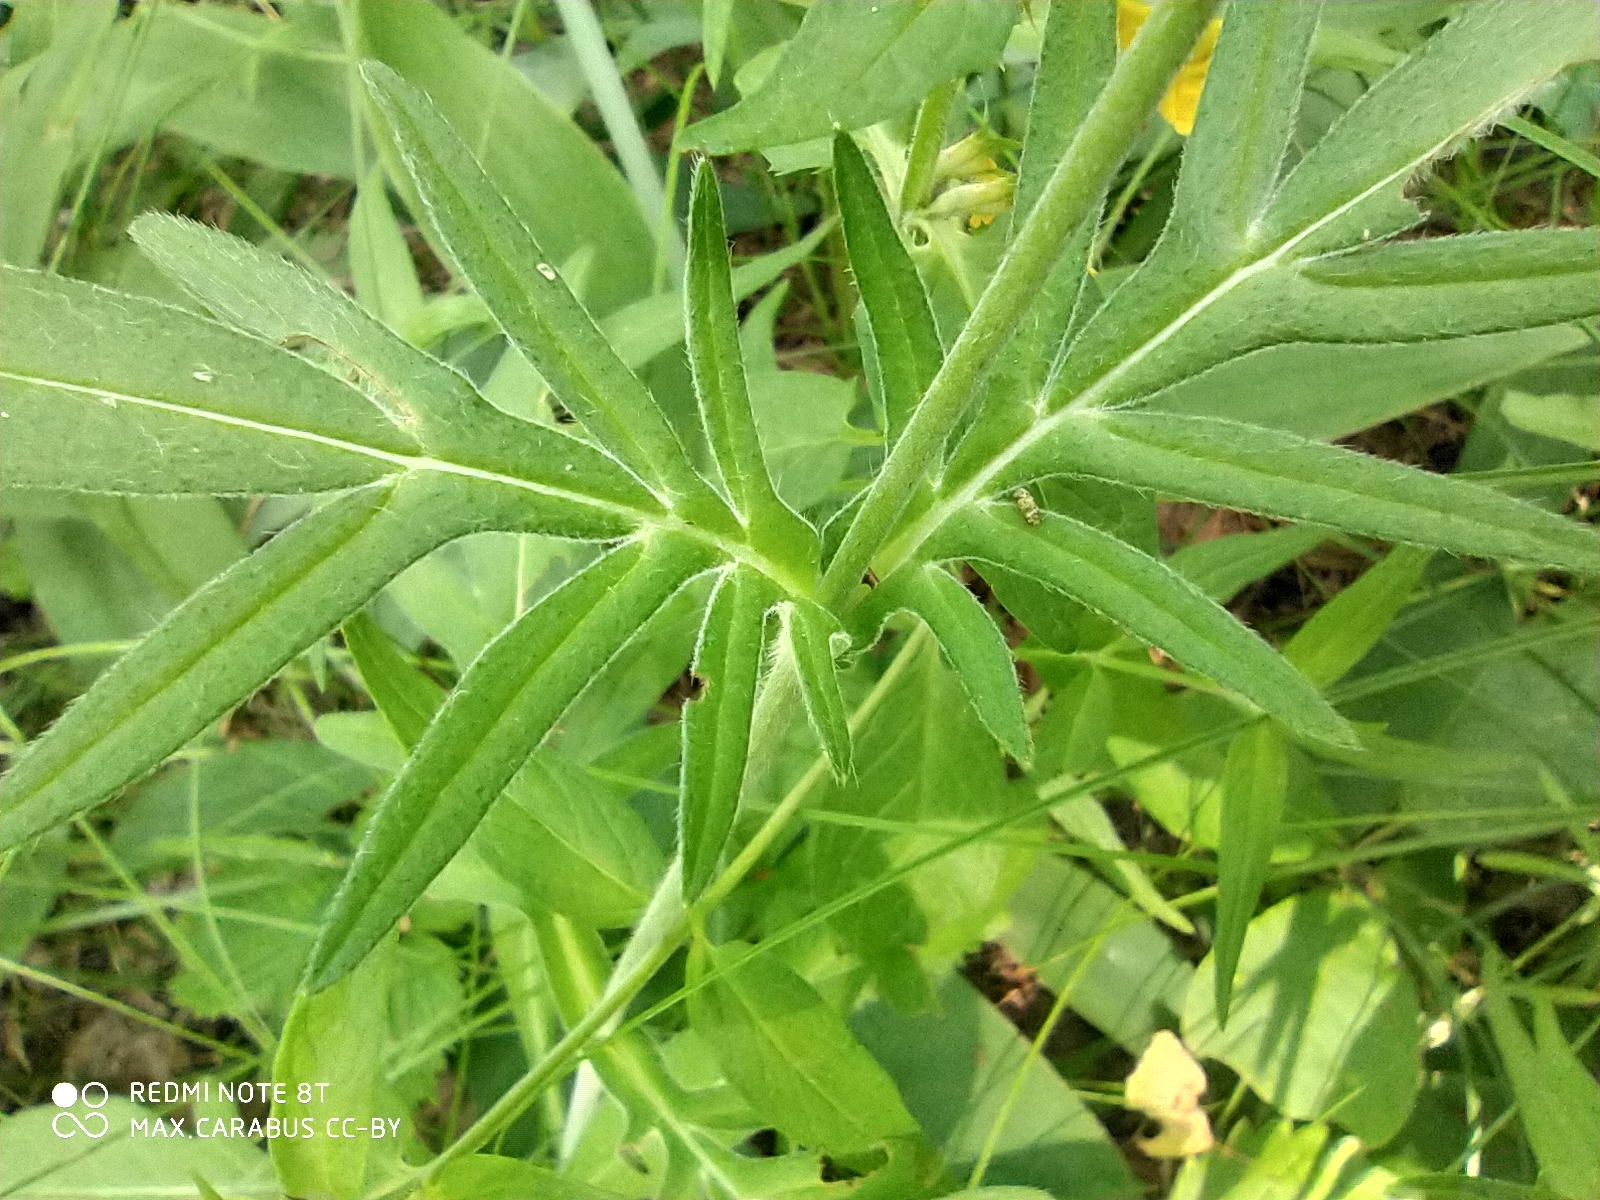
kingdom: Plantae
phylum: Tracheophyta
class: Magnoliopsida
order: Dipsacales
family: Caprifoliaceae
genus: Knautia
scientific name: Knautia arvensis
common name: Field scabiosa
